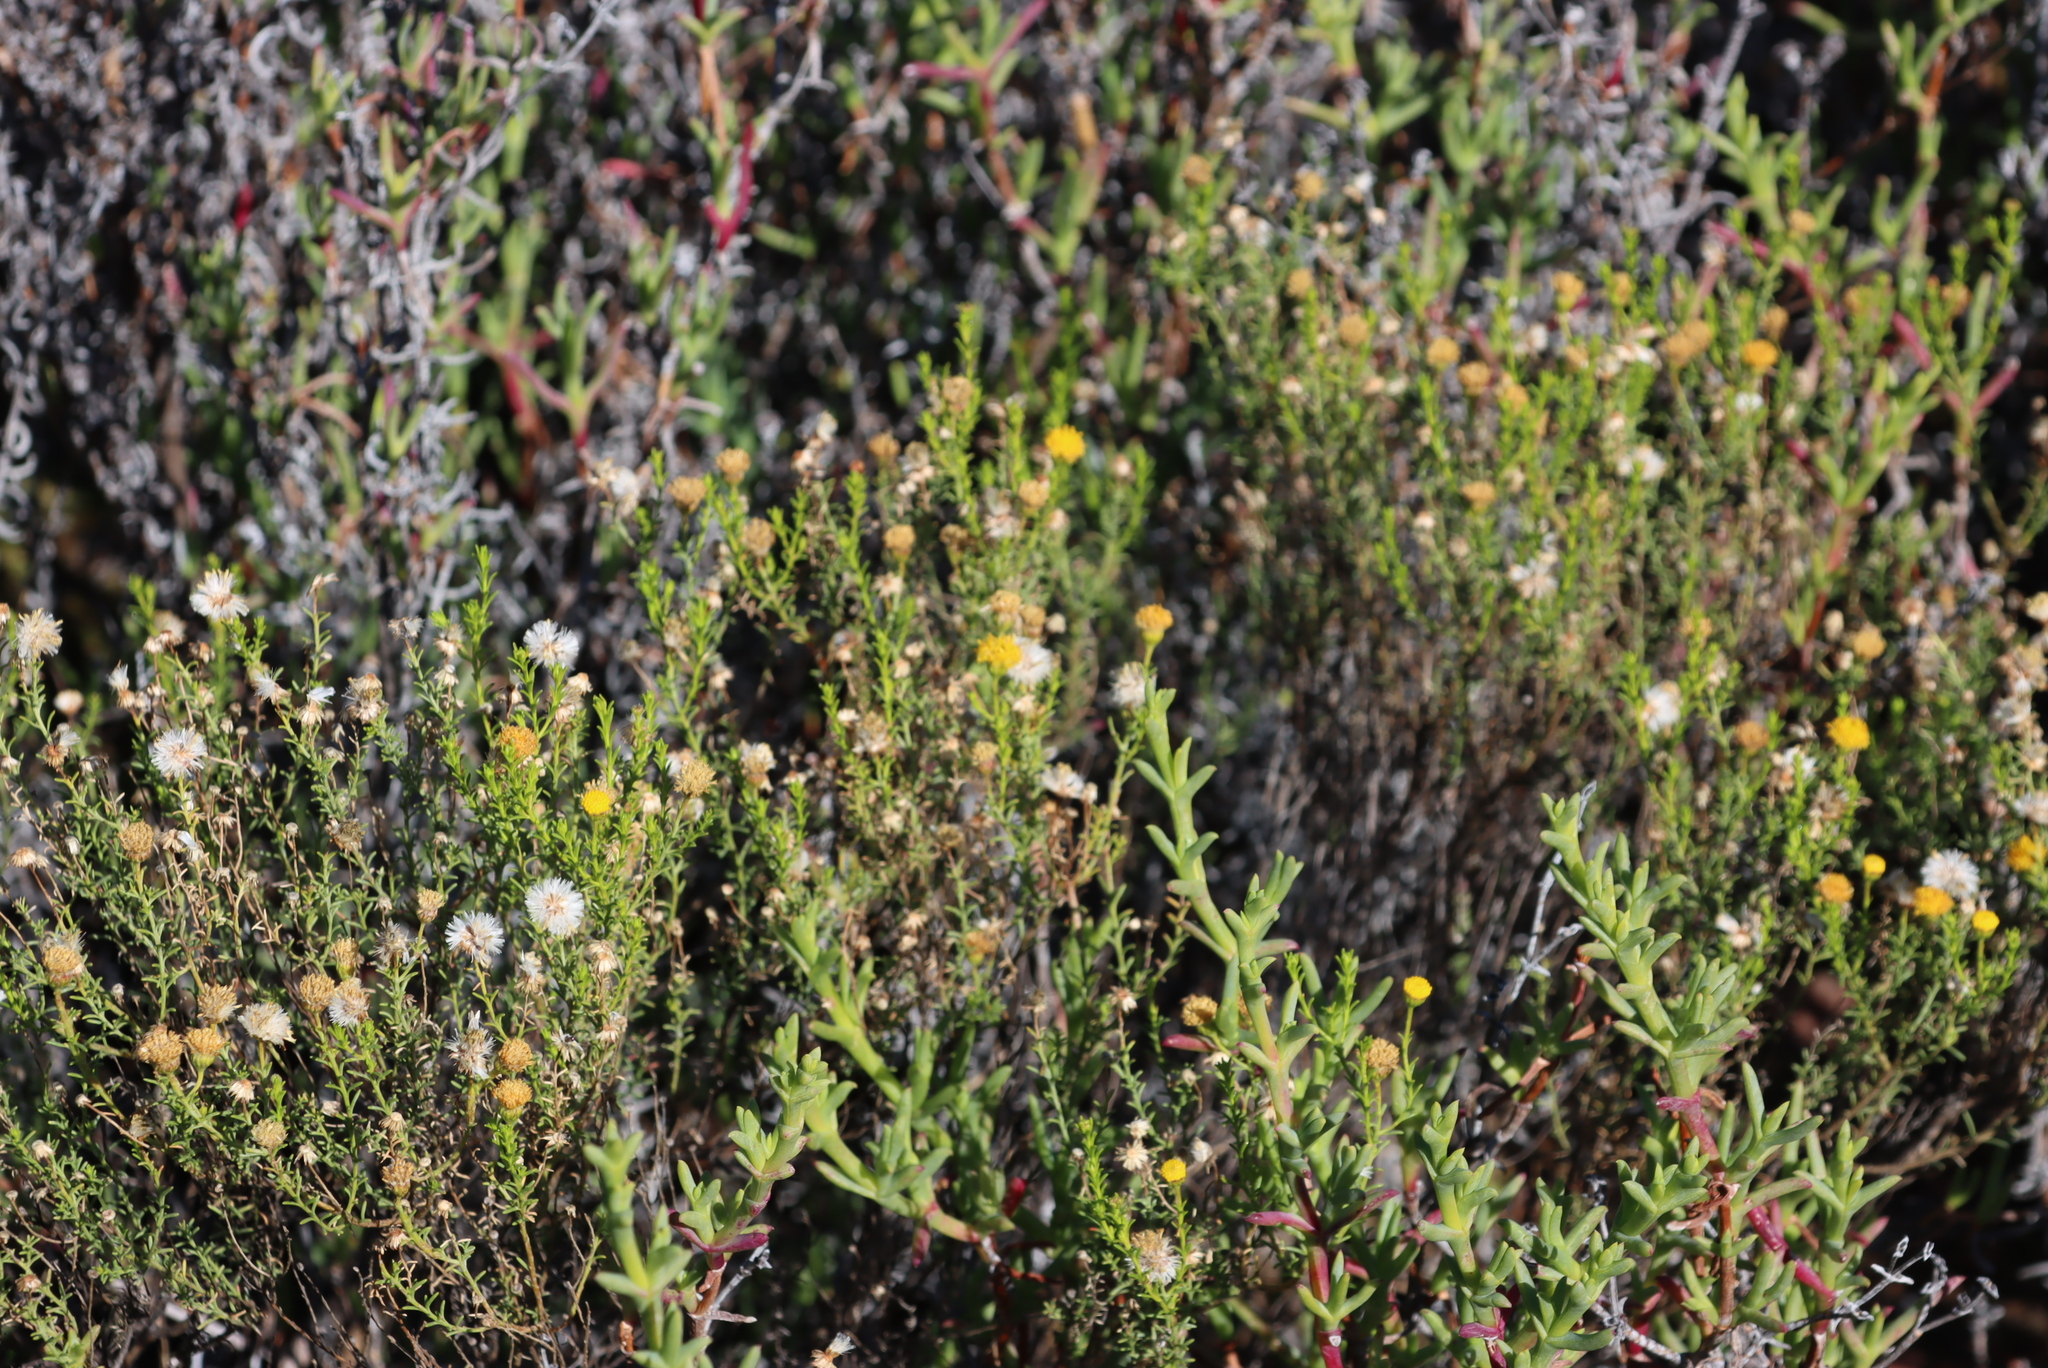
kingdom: Plantae
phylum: Tracheophyta
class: Magnoliopsida
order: Asterales
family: Asteraceae
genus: Chrysocoma
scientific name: Chrysocoma ciliata
